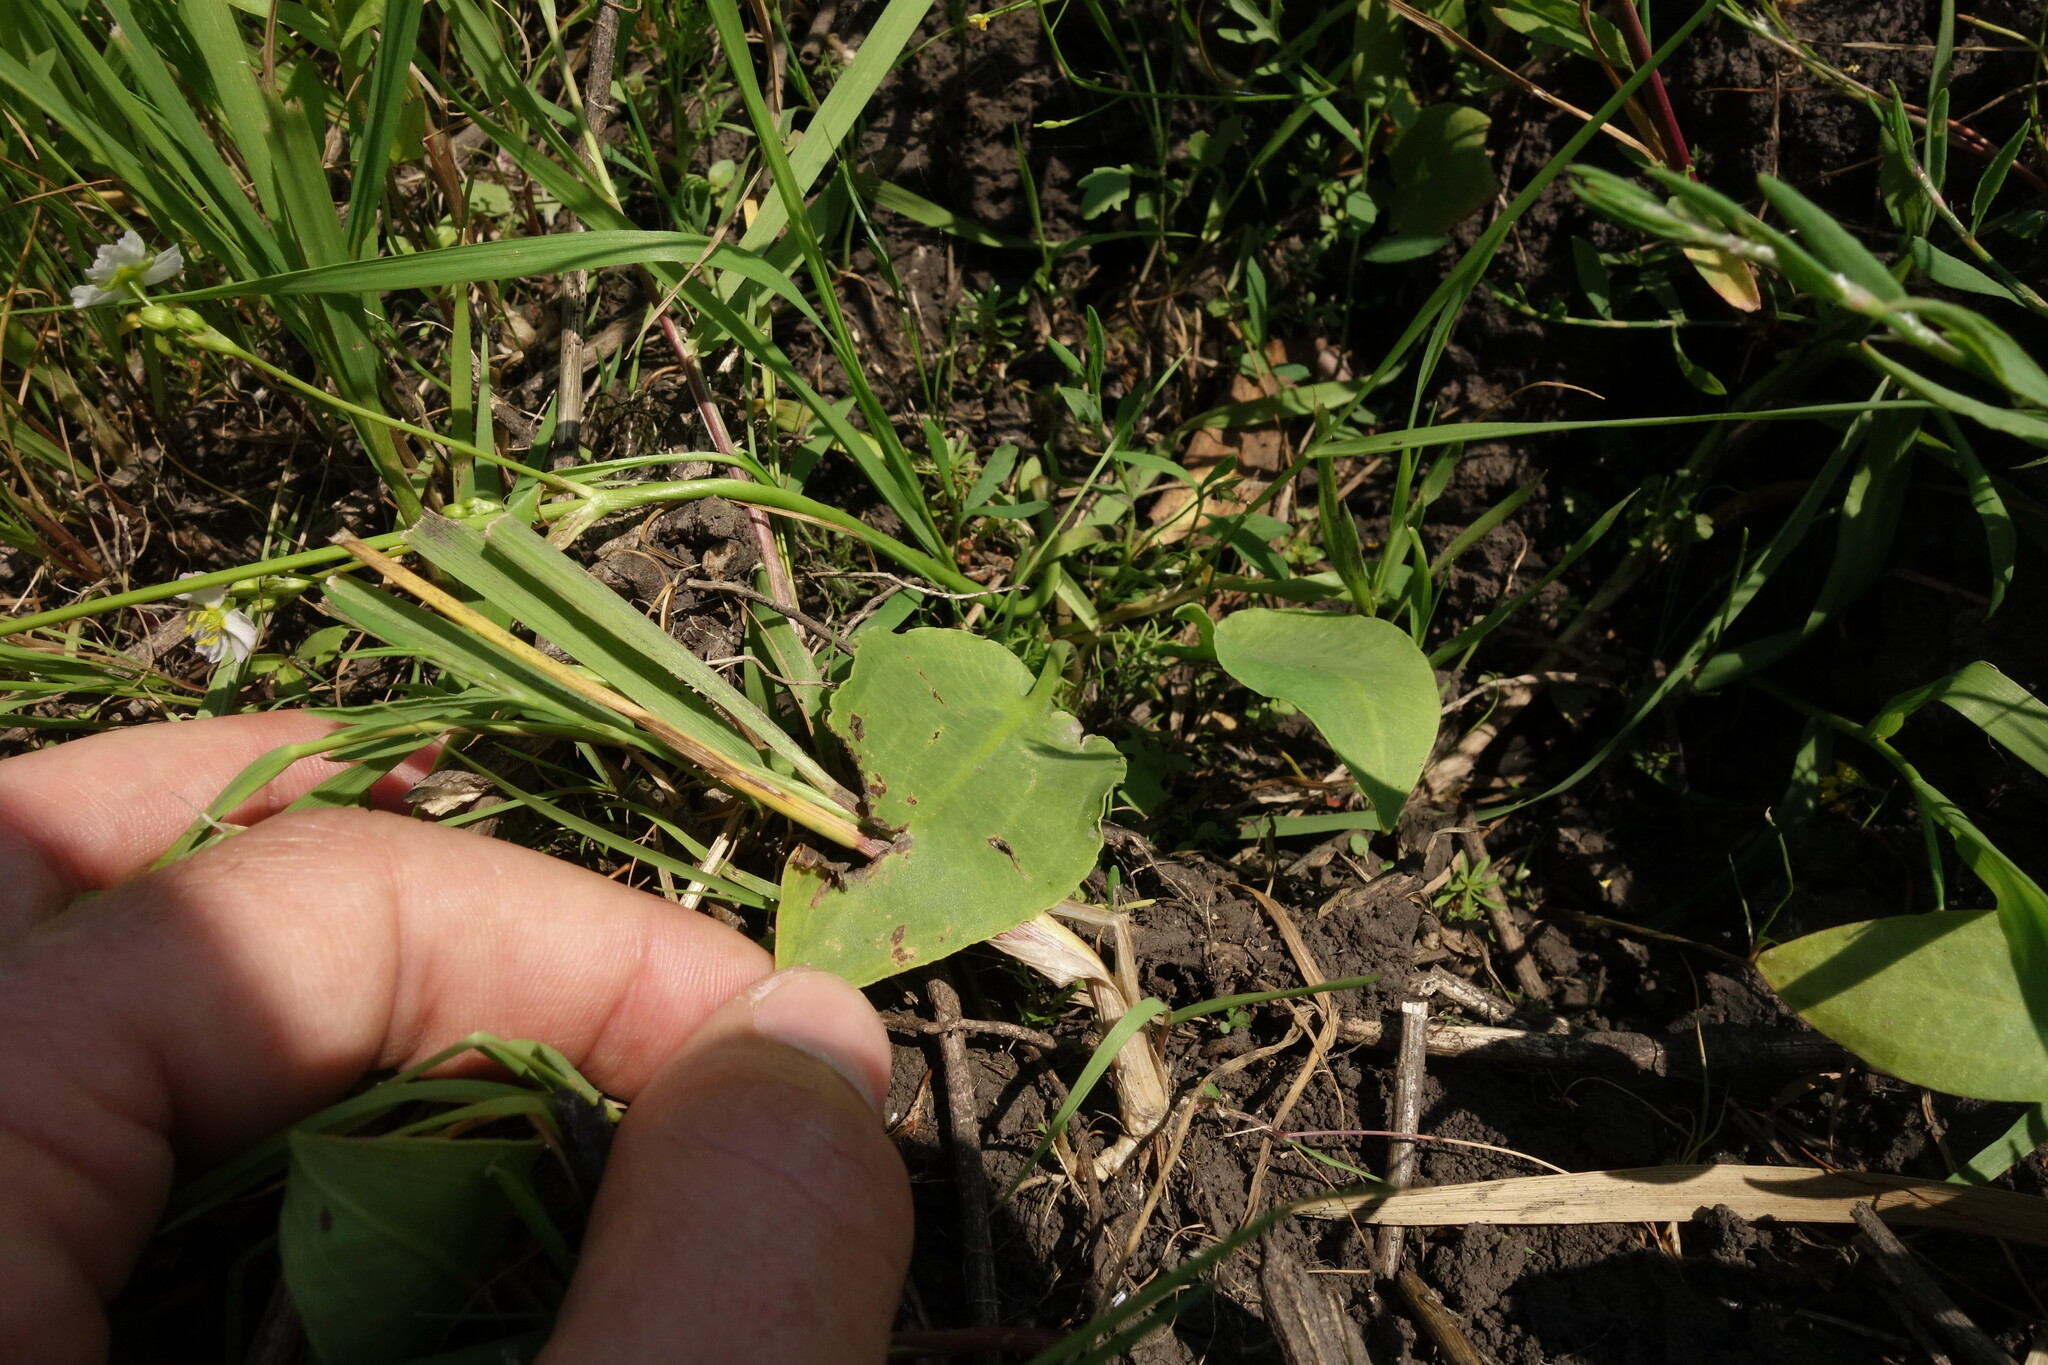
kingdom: Plantae
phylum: Tracheophyta
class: Liliopsida
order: Alismatales
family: Alismataceae
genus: Alisma
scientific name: Alisma plantago-aquatica
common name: Water-plantain
